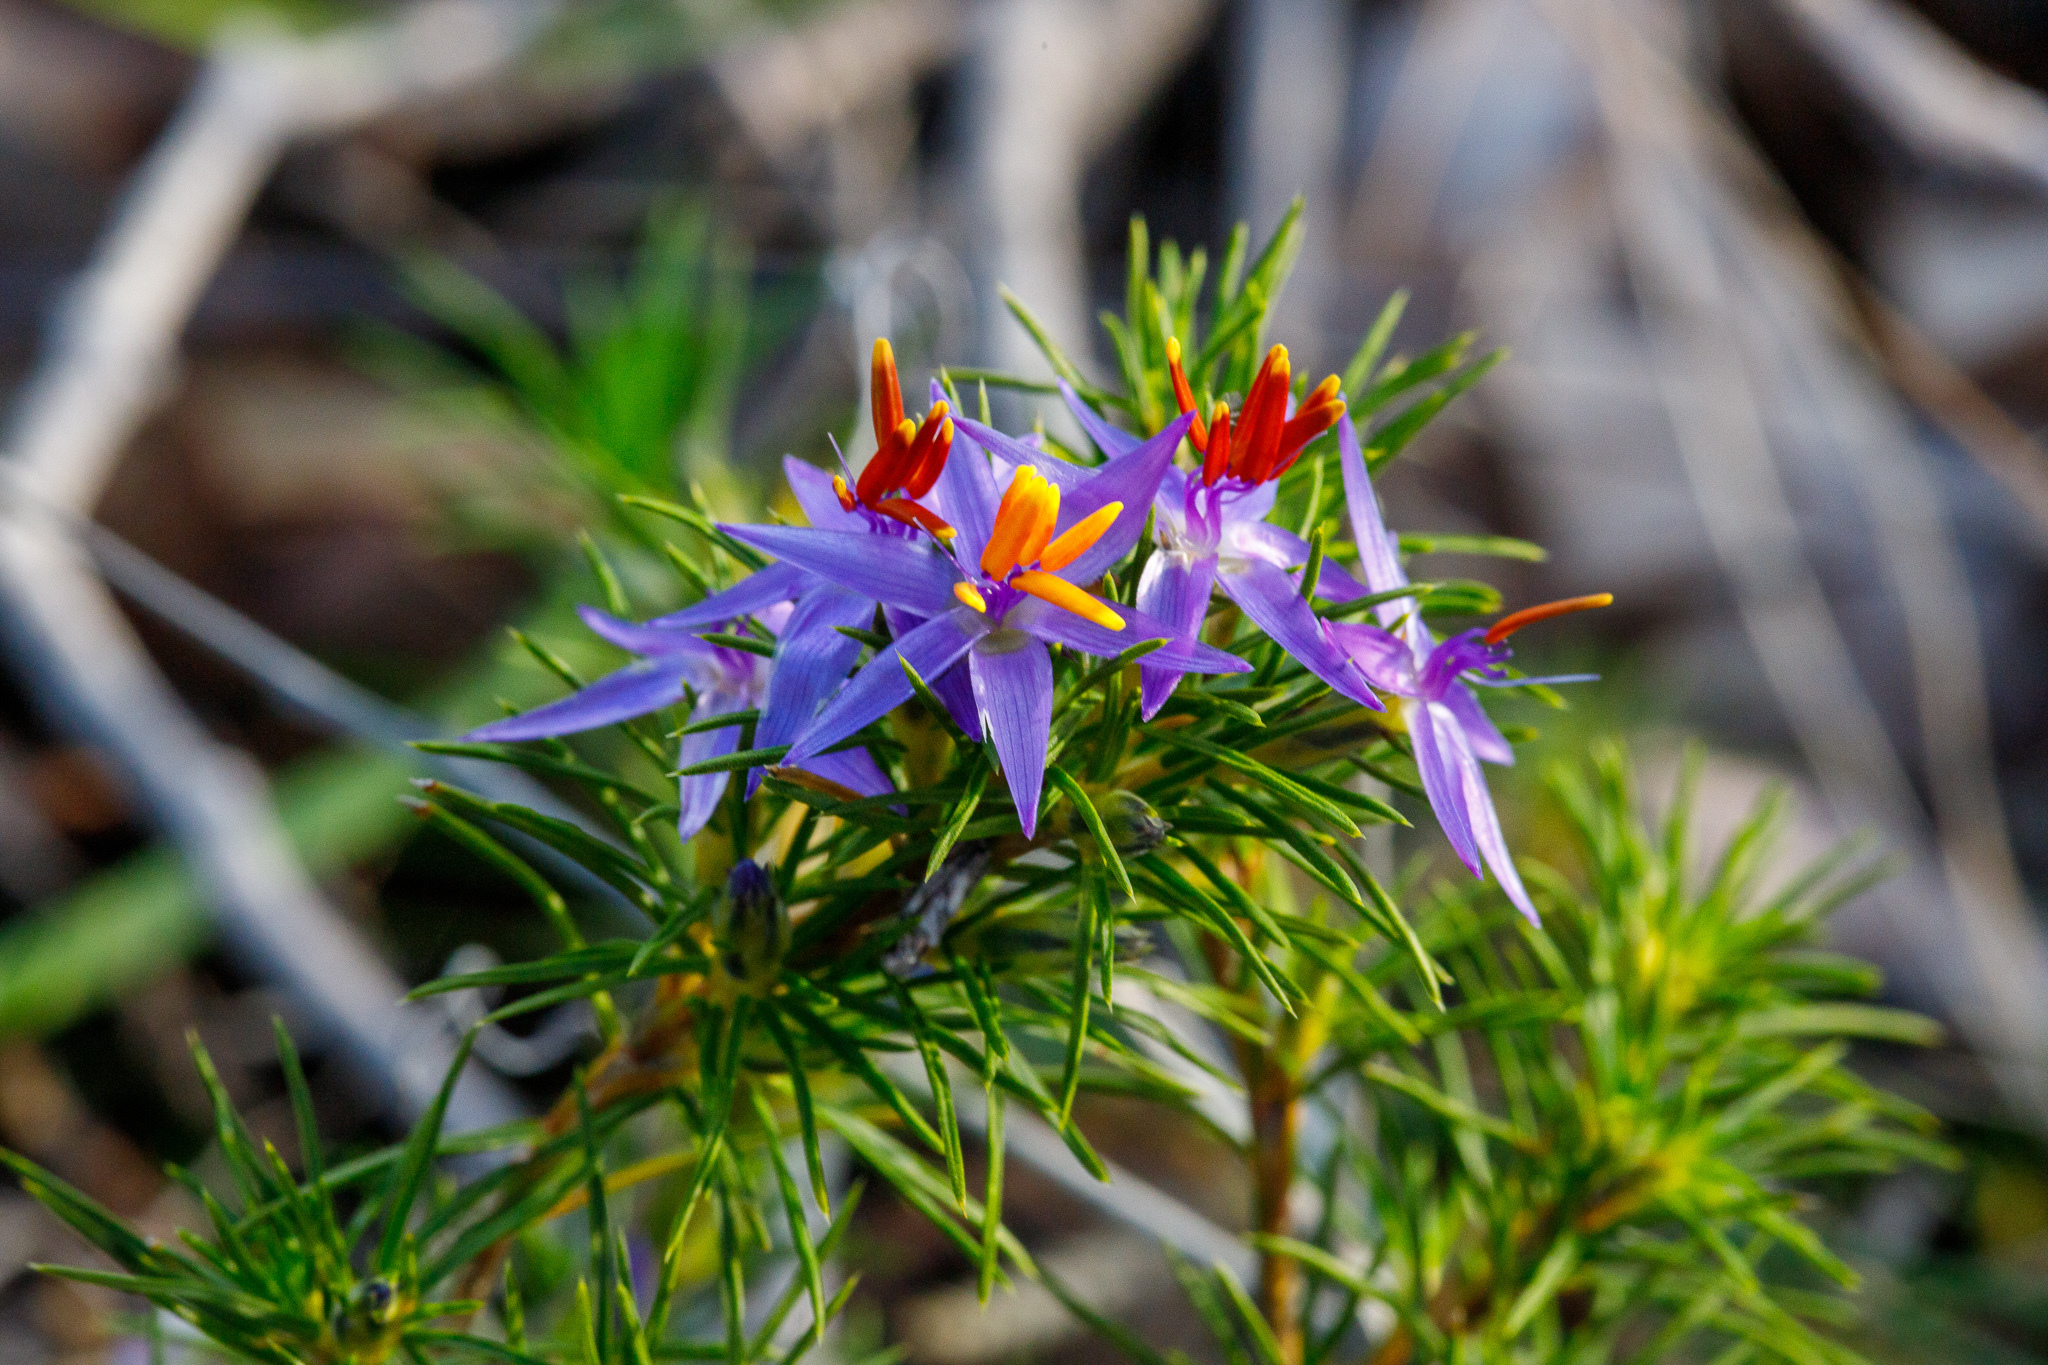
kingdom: Plantae
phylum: Tracheophyta
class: Liliopsida
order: Arecales
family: Dasypogonaceae
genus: Calectasia
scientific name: Calectasia narragara
